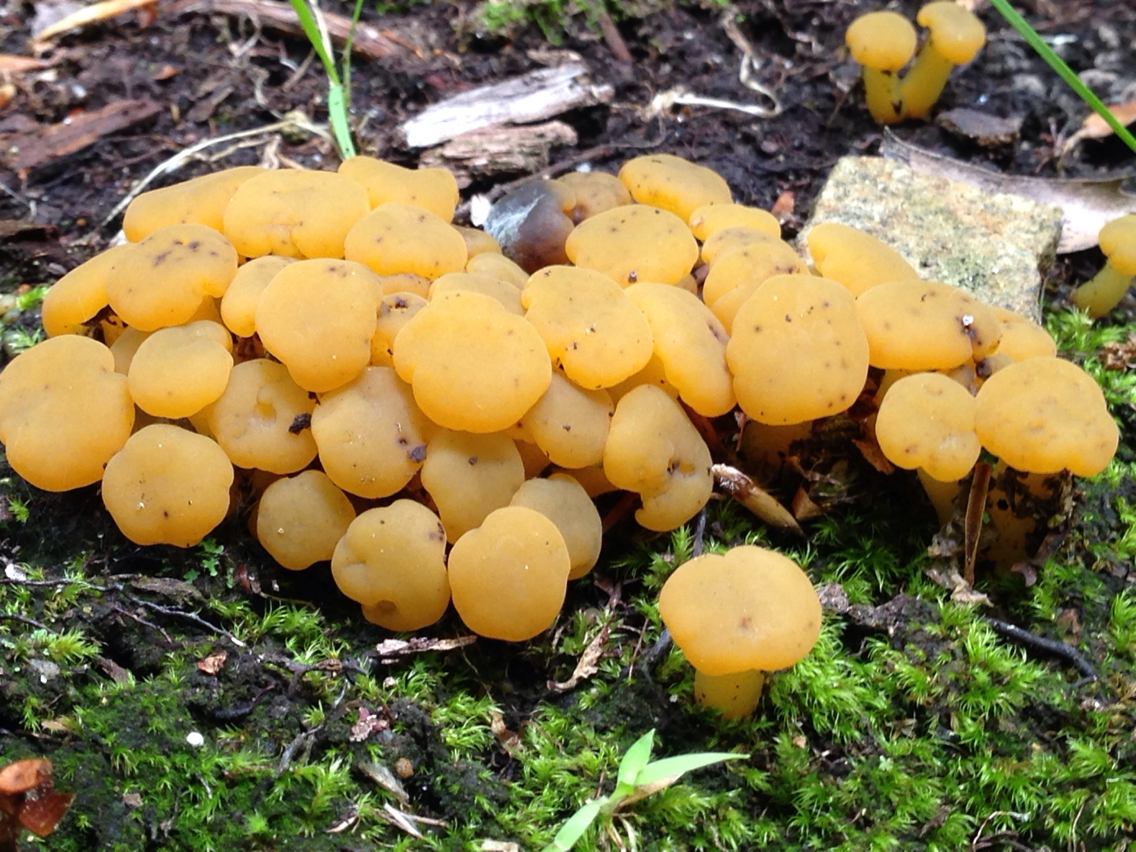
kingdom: Fungi
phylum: Ascomycota
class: Leotiomycetes
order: Leotiales
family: Leotiaceae
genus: Leotia
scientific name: Leotia lubrica
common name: Jellybaby
